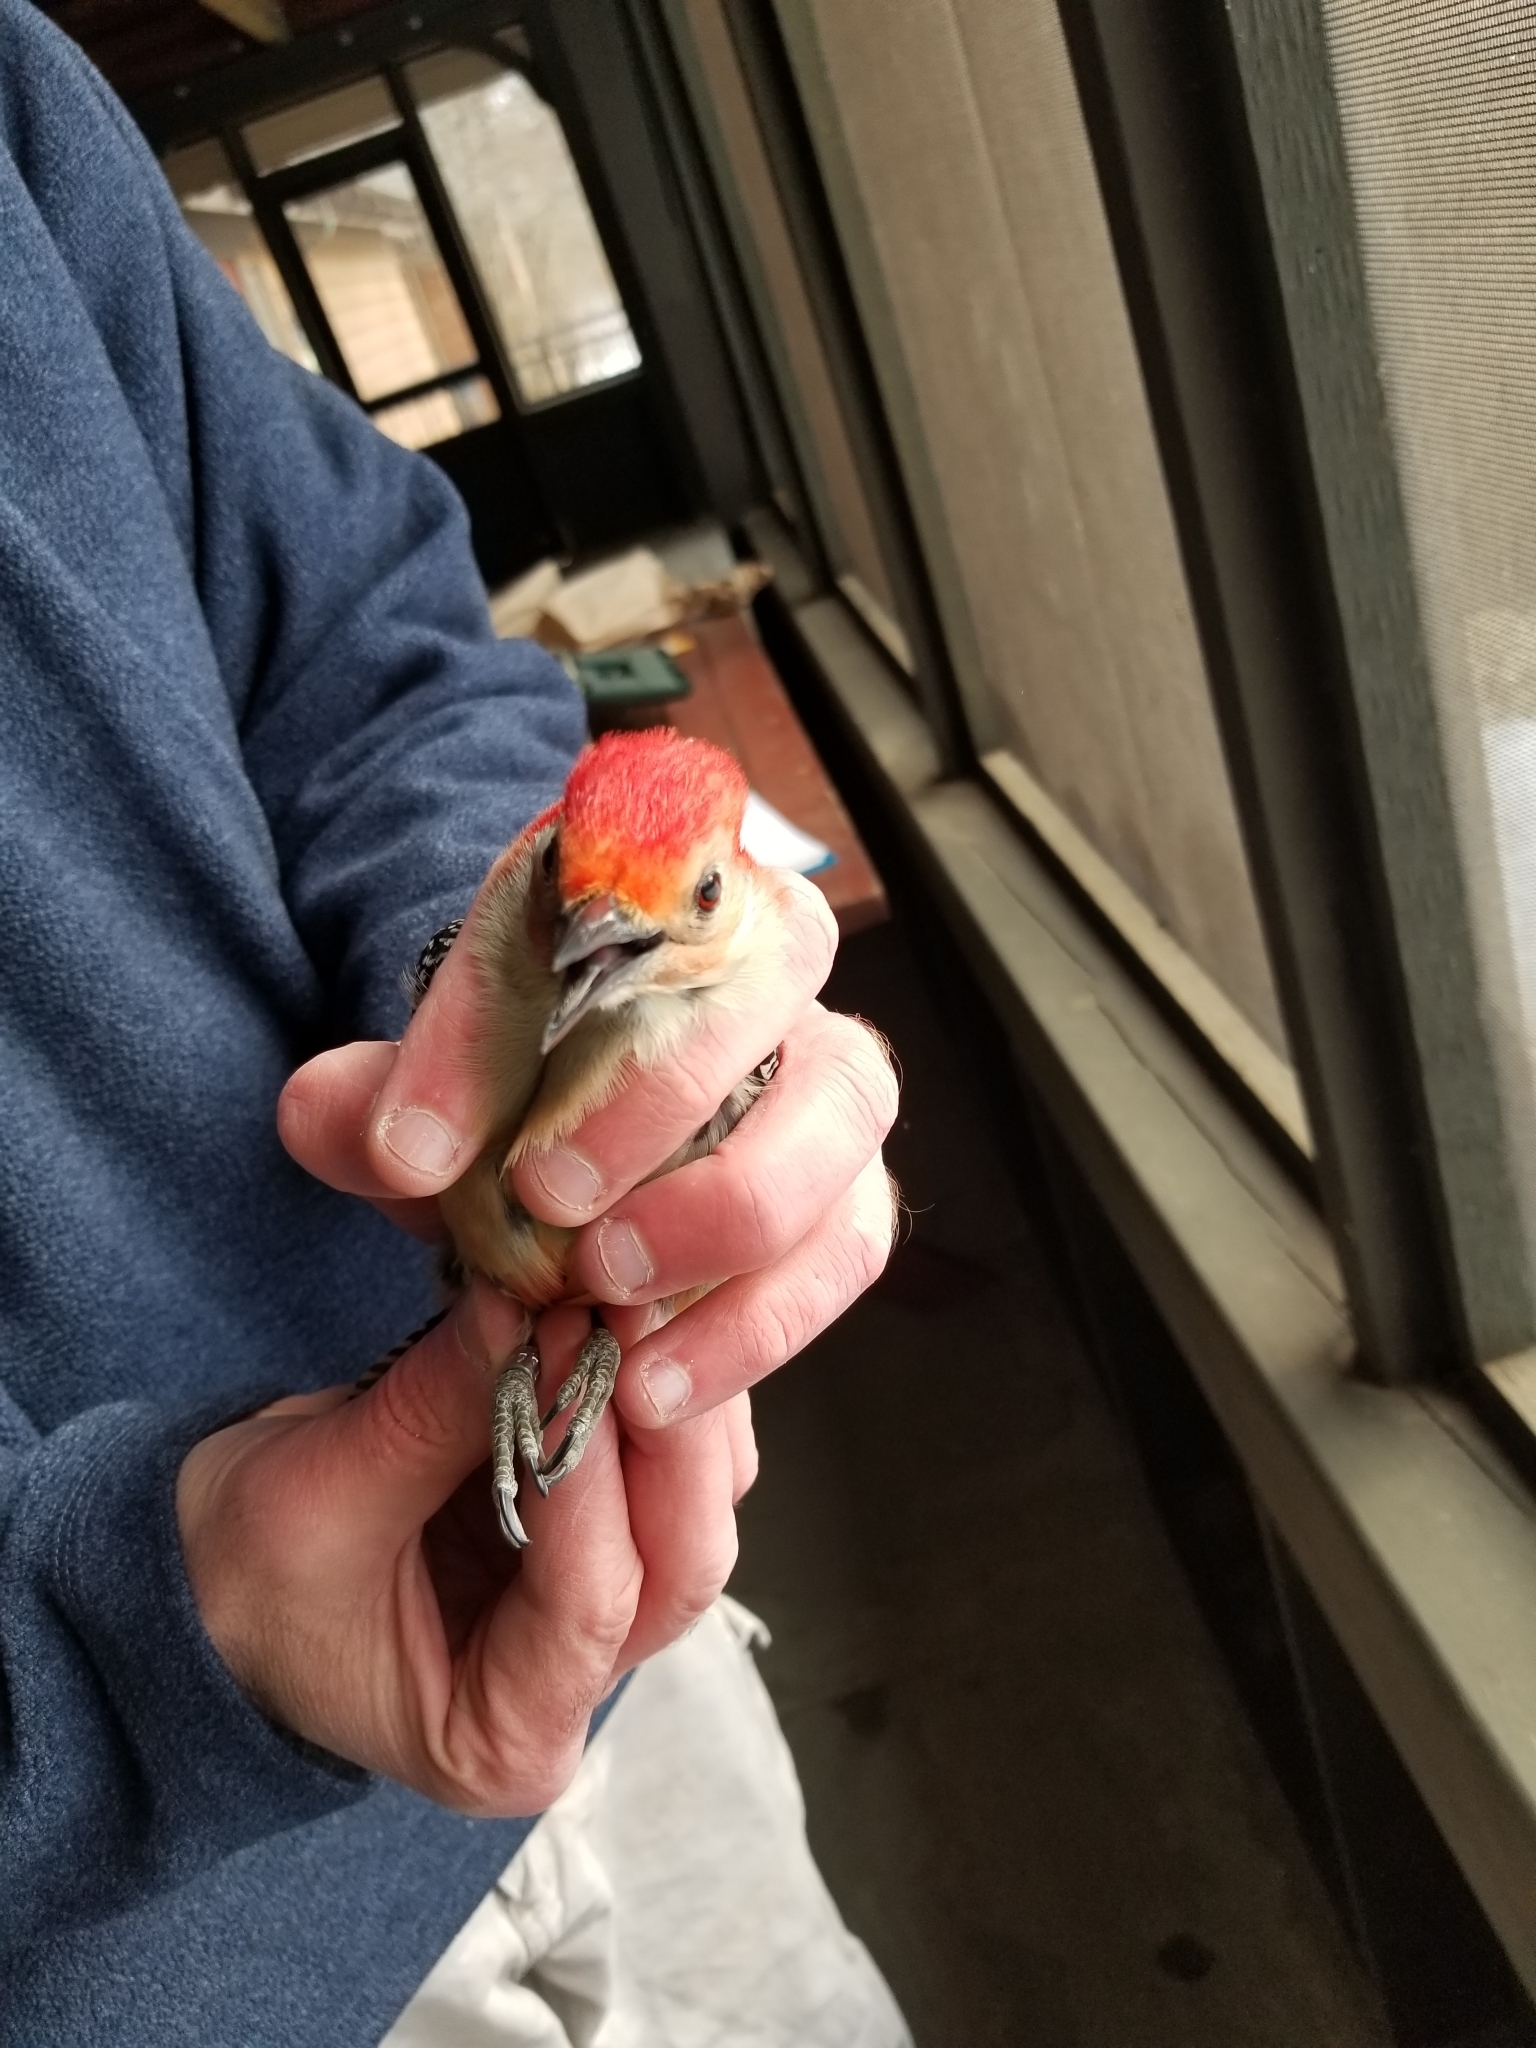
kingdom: Animalia
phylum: Chordata
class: Aves
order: Piciformes
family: Picidae
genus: Melanerpes
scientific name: Melanerpes carolinus
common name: Red-bellied woodpecker
